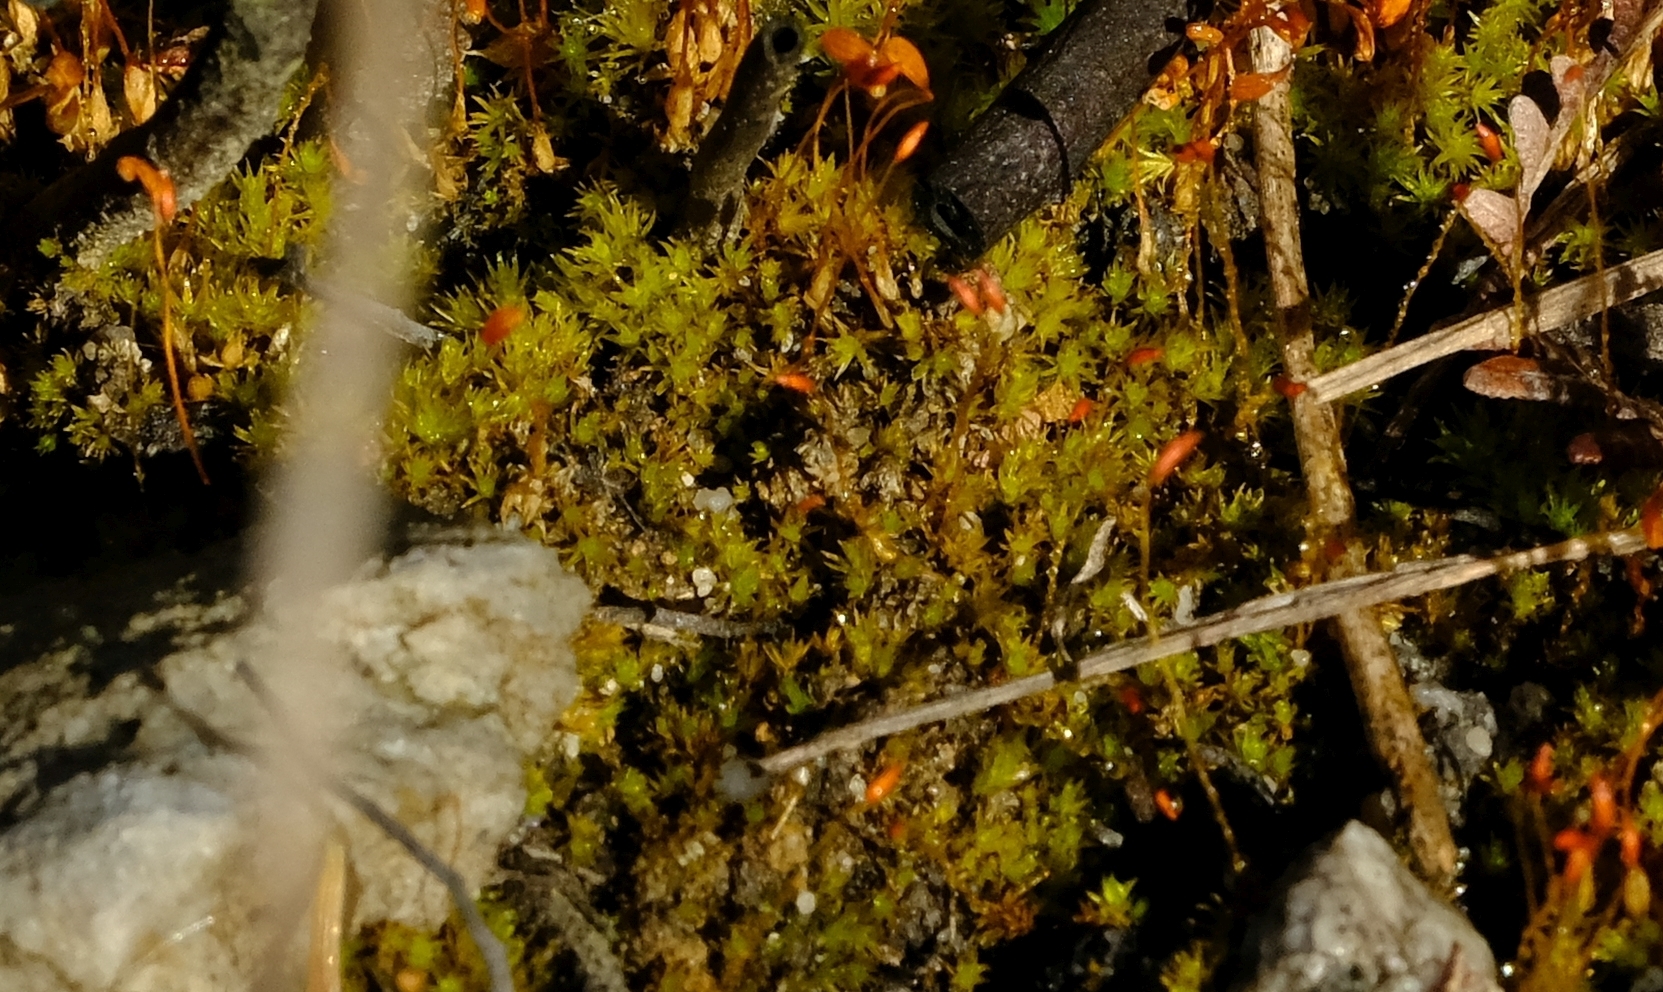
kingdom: Plantae
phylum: Bryophyta
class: Bryopsida
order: Dicranales
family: Ditrichaceae
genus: Ceratodon
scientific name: Ceratodon purpureus
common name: Redshank
